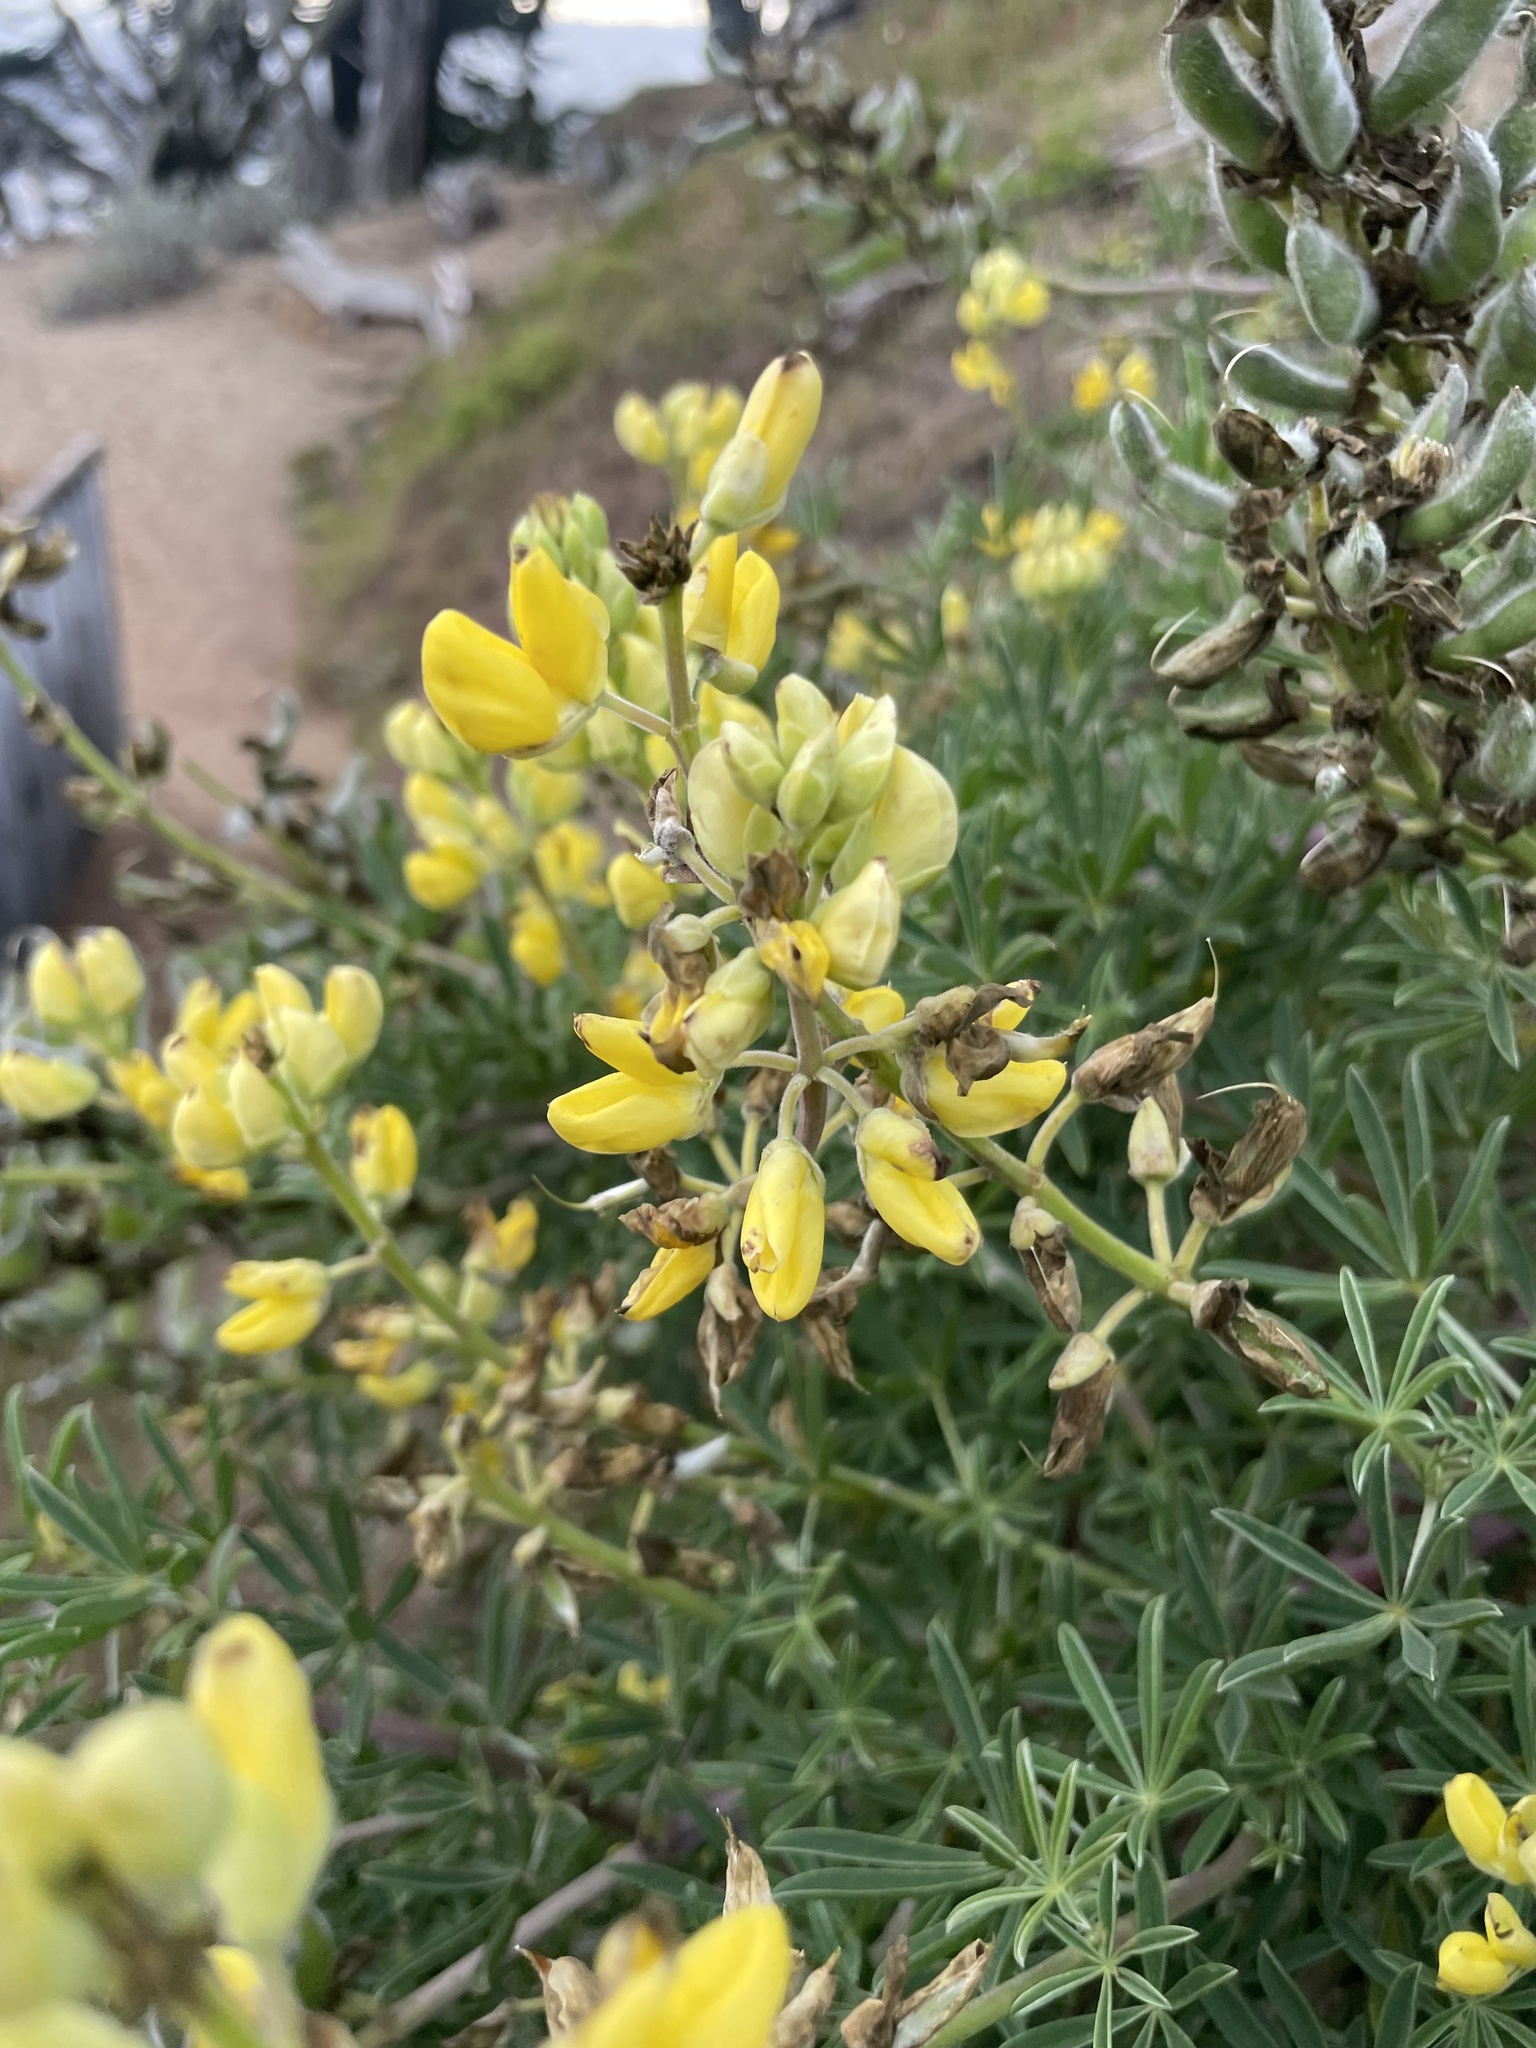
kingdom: Plantae
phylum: Tracheophyta
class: Magnoliopsida
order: Fabales
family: Fabaceae
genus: Lupinus
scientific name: Lupinus arboreus
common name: Yellow bush lupine
